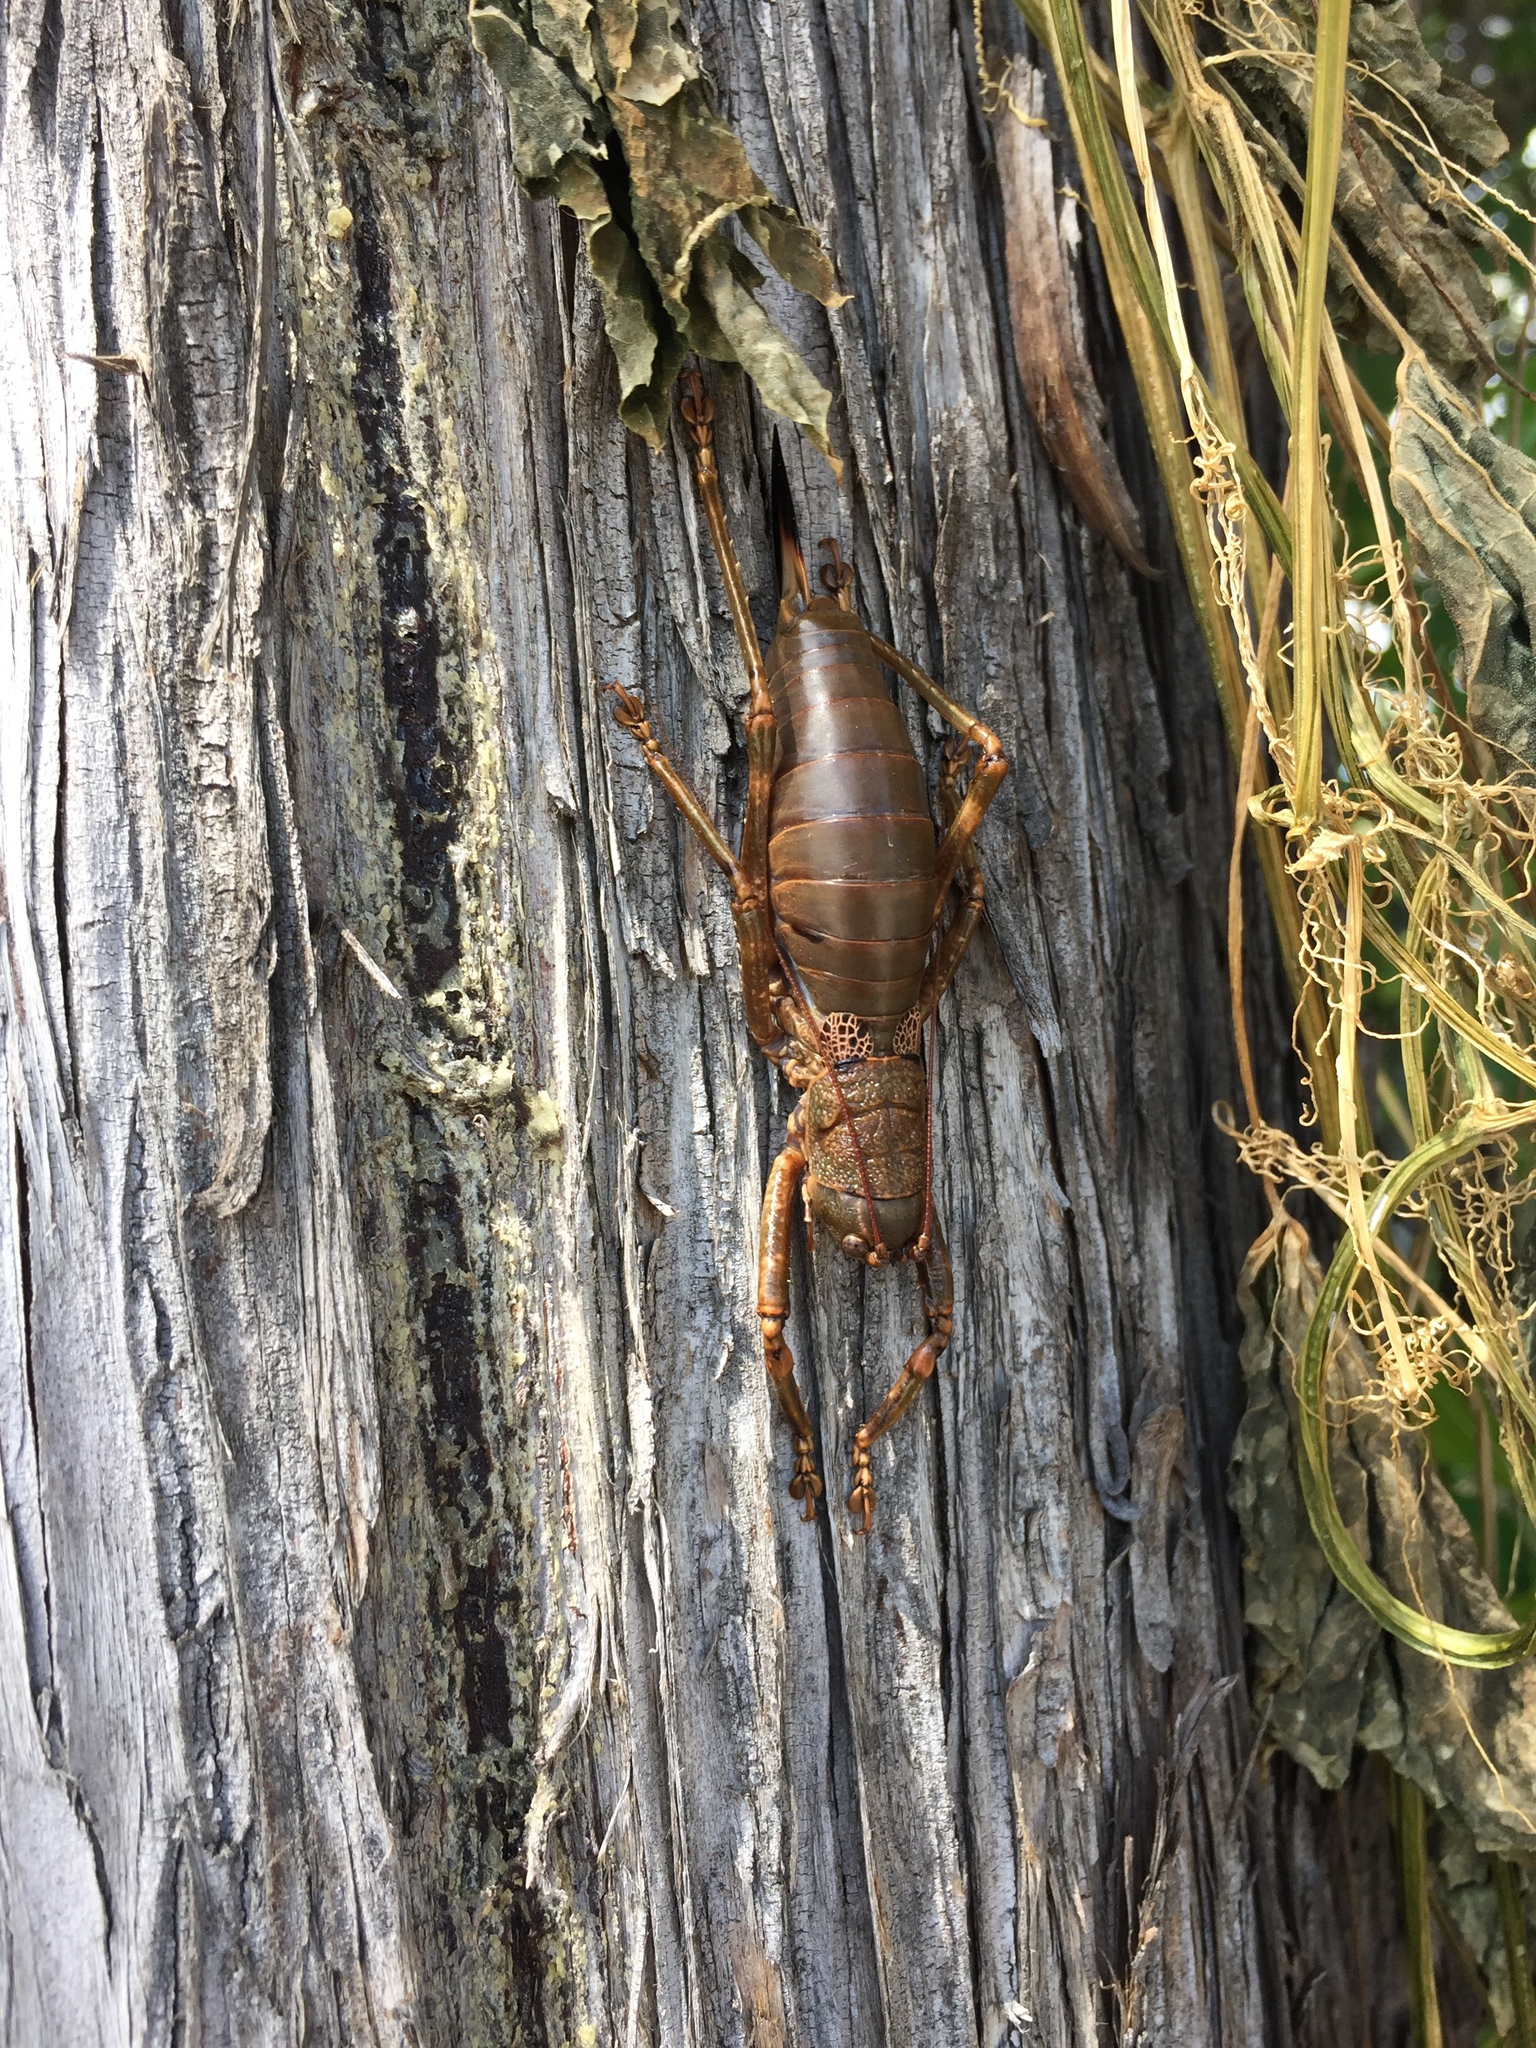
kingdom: Animalia
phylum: Arthropoda
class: Insecta
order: Orthoptera
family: Tettigoniidae
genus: Liparoscelis
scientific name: Liparoscelis pallidispina
